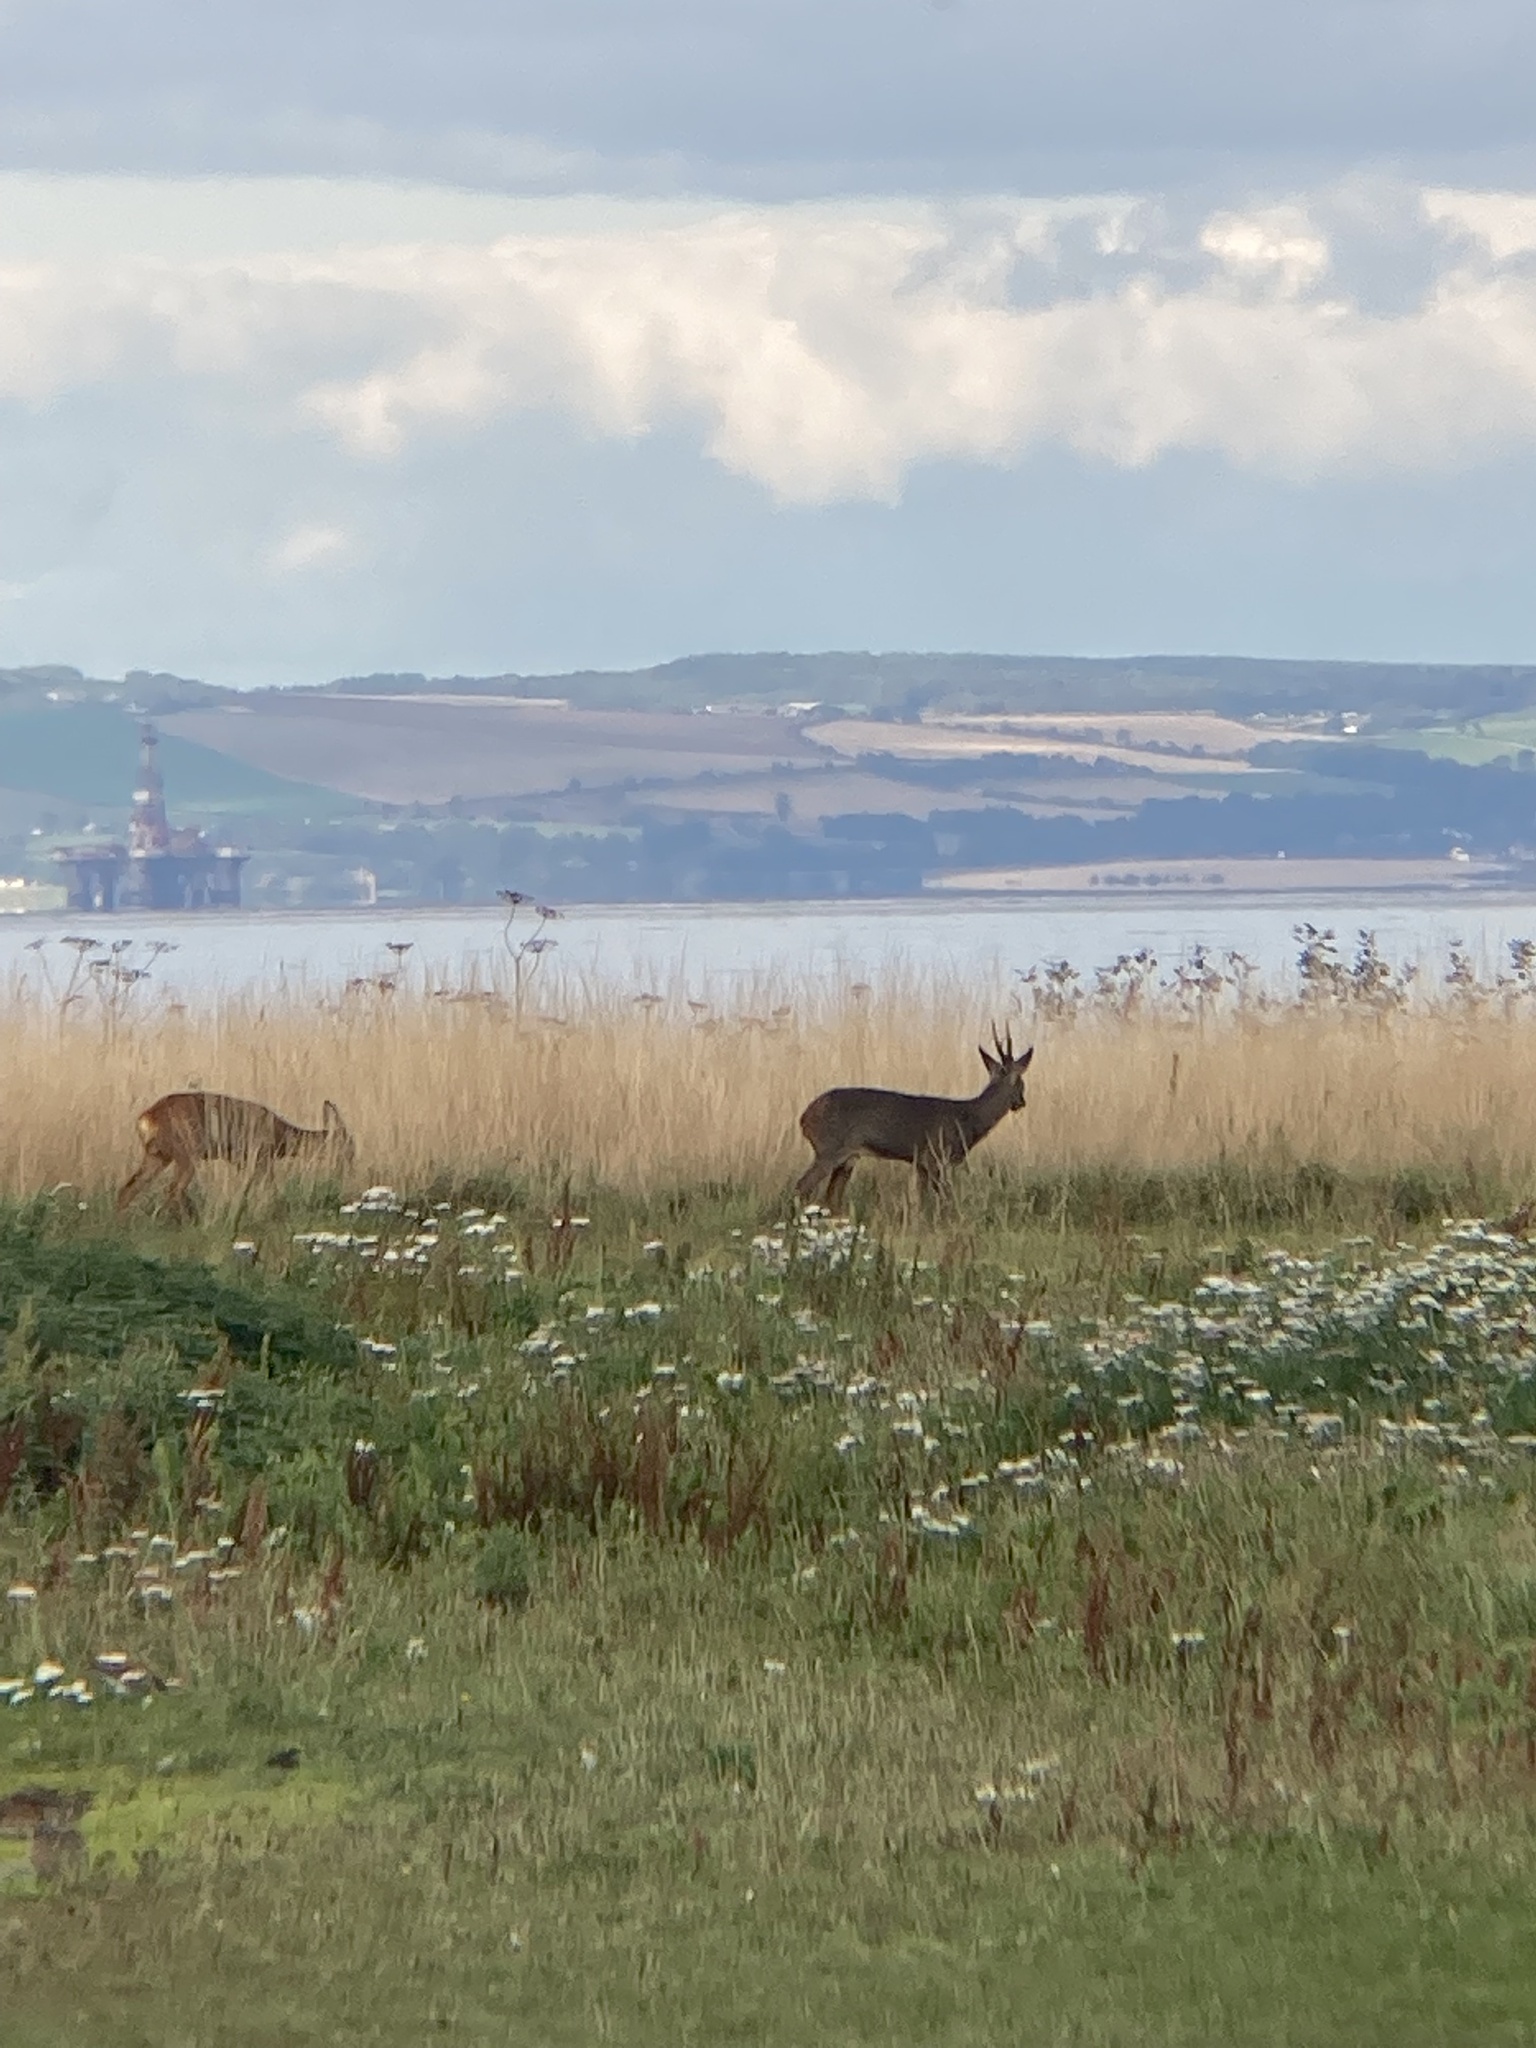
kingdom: Animalia
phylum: Chordata
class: Mammalia
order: Artiodactyla
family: Cervidae
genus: Capreolus
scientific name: Capreolus capreolus
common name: Western roe deer
